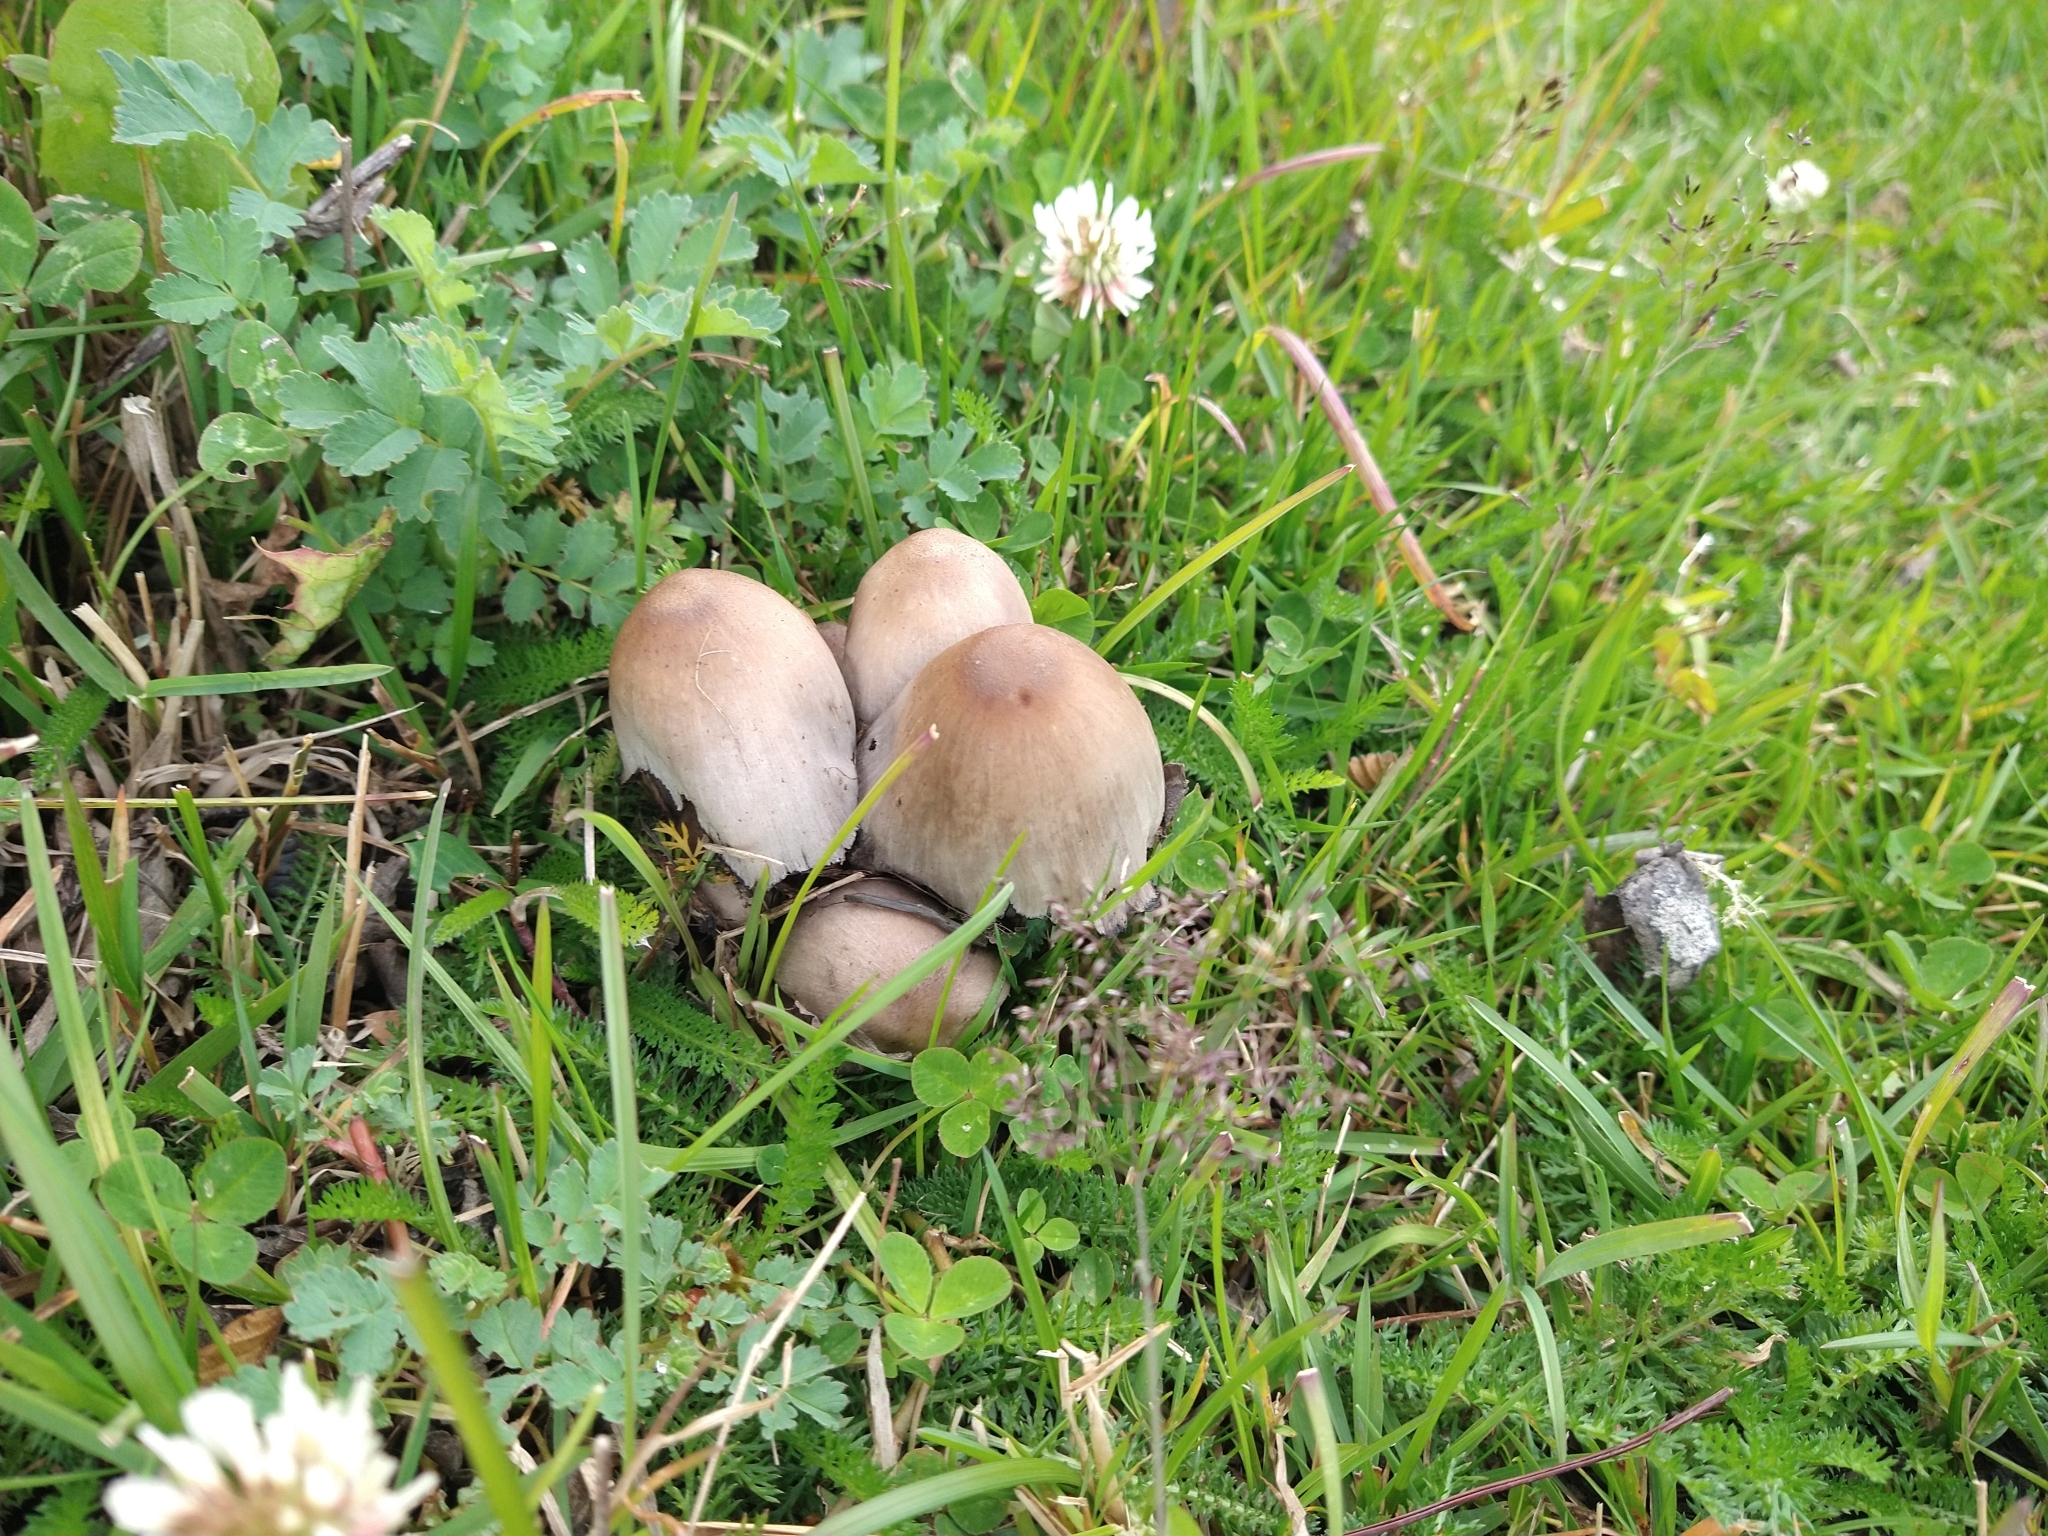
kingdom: Fungi
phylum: Basidiomycota
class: Agaricomycetes
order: Agaricales
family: Psathyrellaceae
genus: Coprinopsis
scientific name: Coprinopsis atramentaria
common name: Common ink-cap
